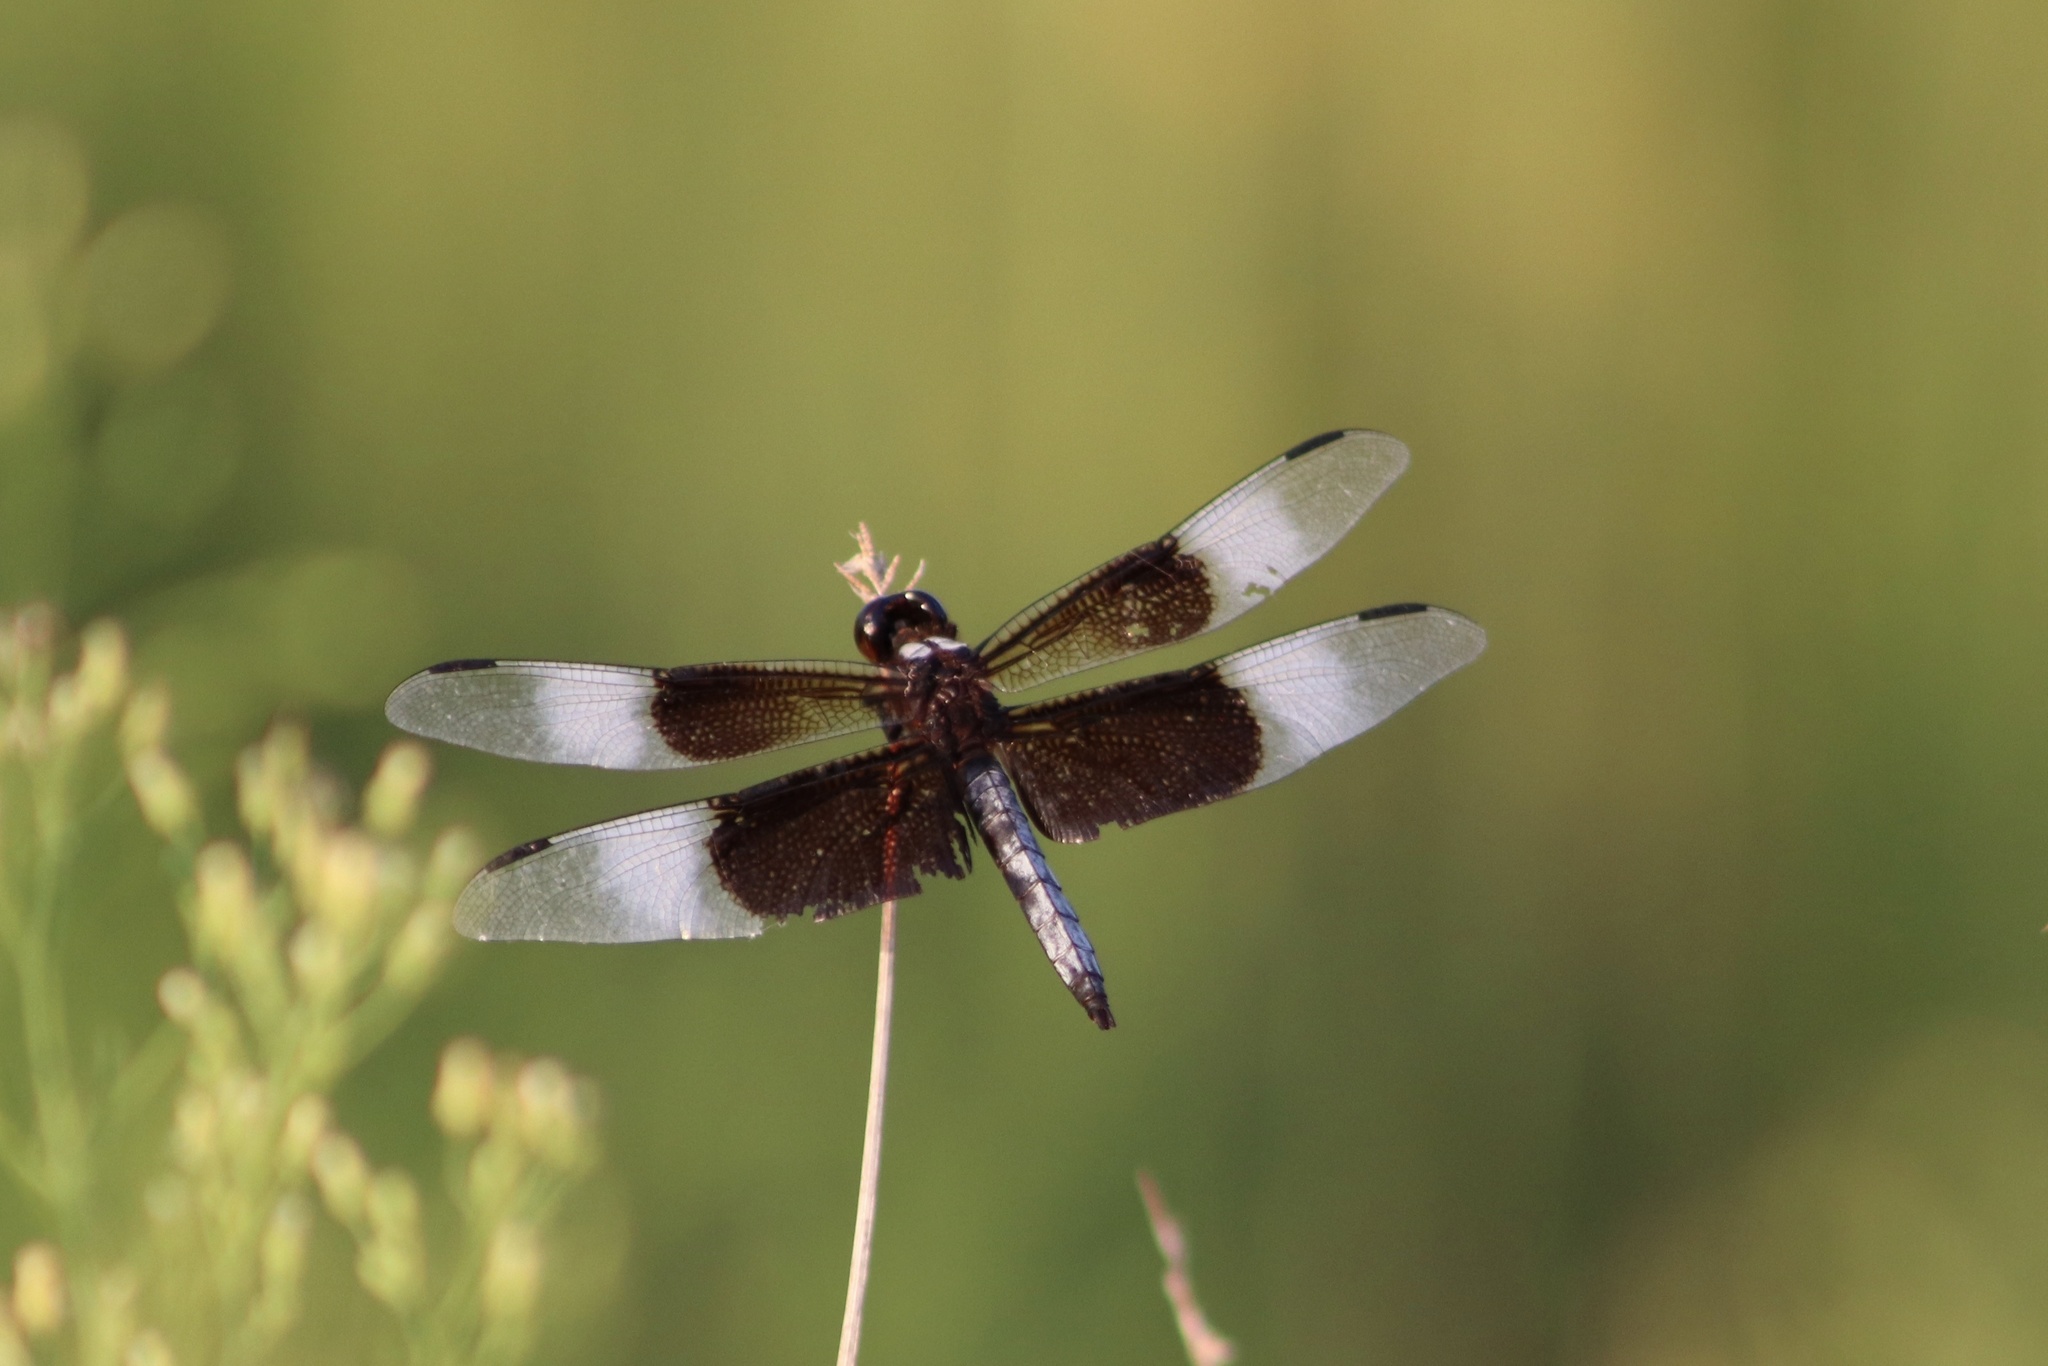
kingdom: Animalia
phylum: Arthropoda
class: Insecta
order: Odonata
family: Libellulidae
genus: Libellula
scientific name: Libellula luctuosa
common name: Widow skimmer
